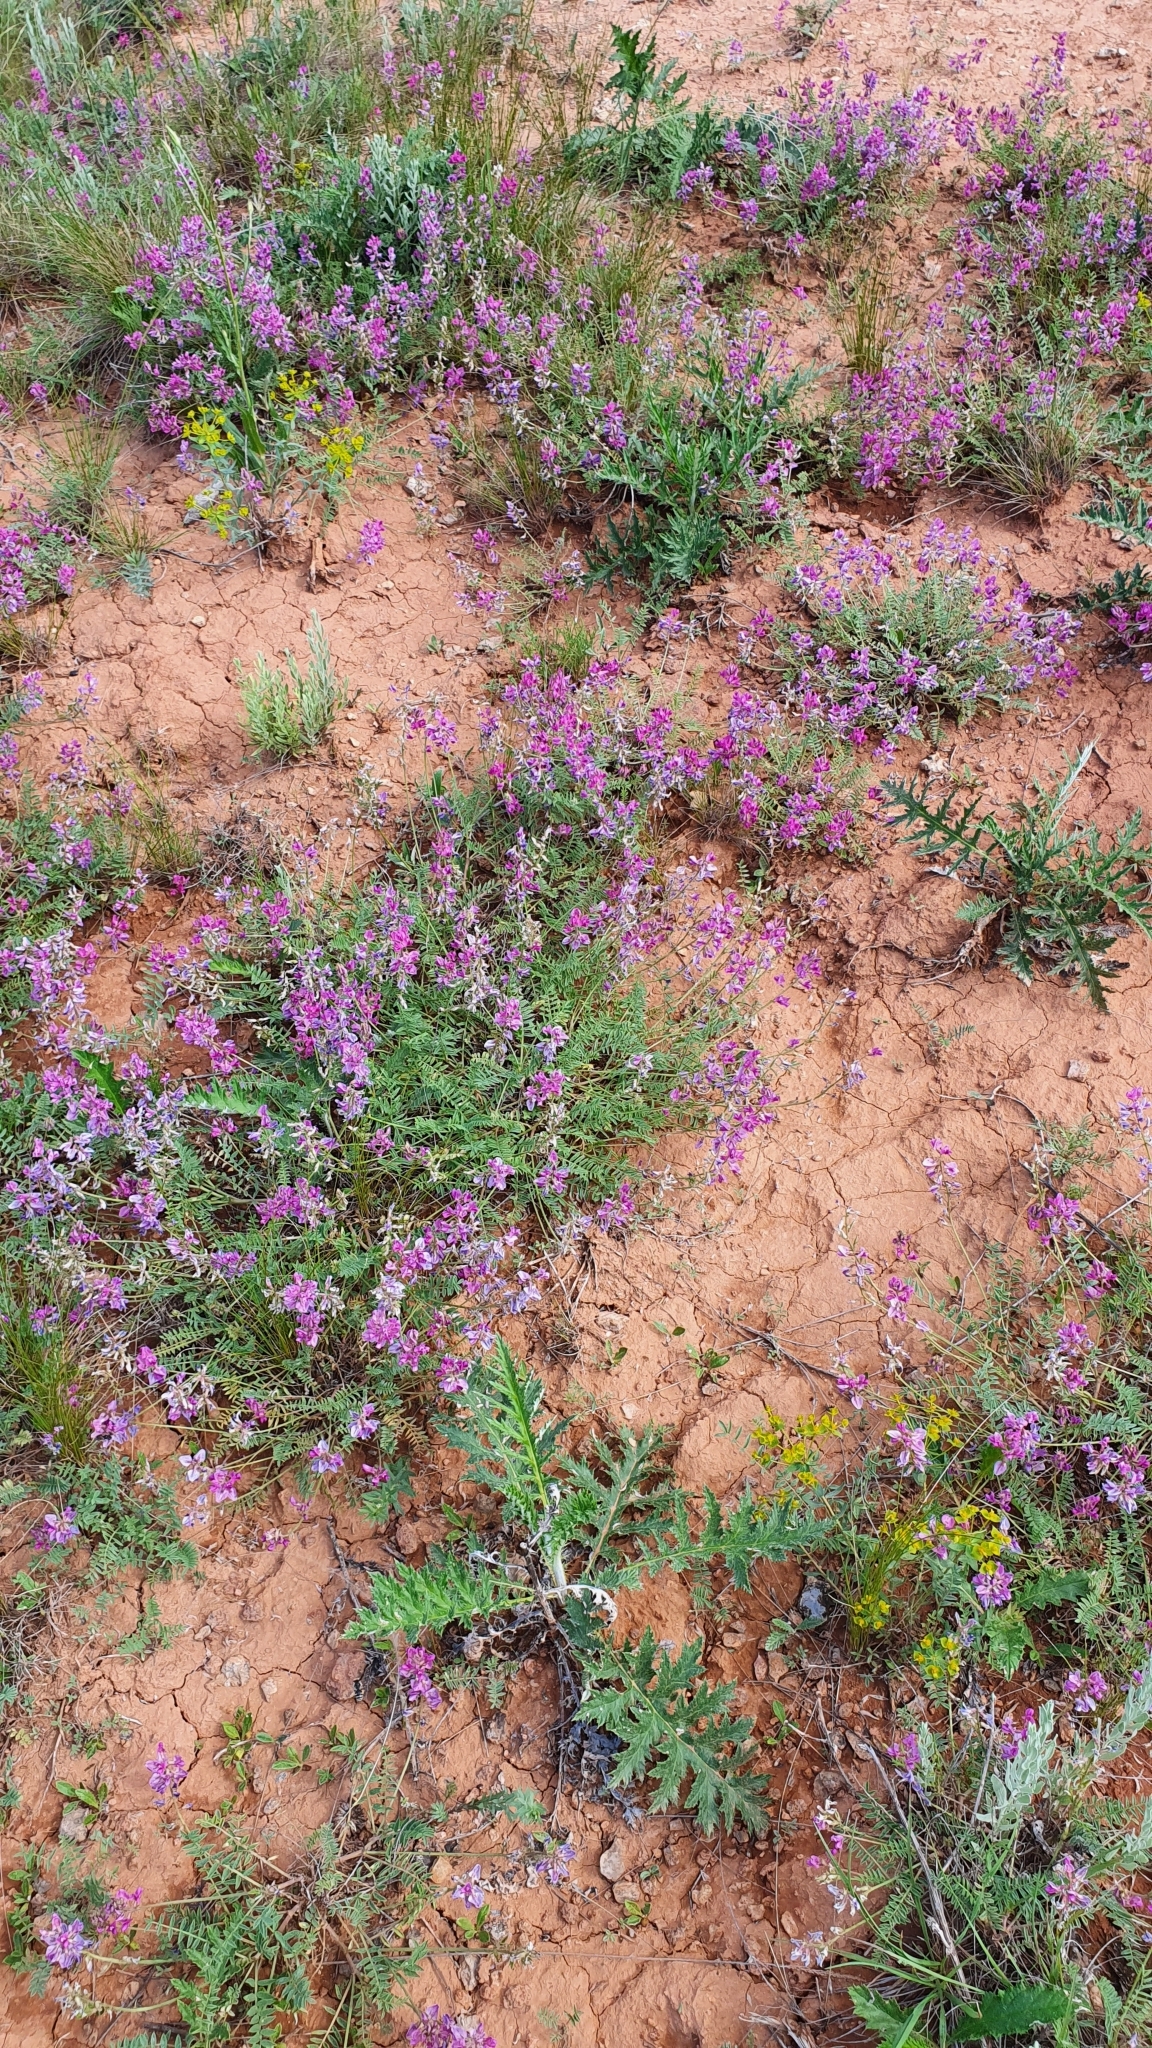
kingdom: Plantae
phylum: Tracheophyta
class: Magnoliopsida
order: Fabales
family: Fabaceae
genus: Oxytropis
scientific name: Oxytropis floribunda
